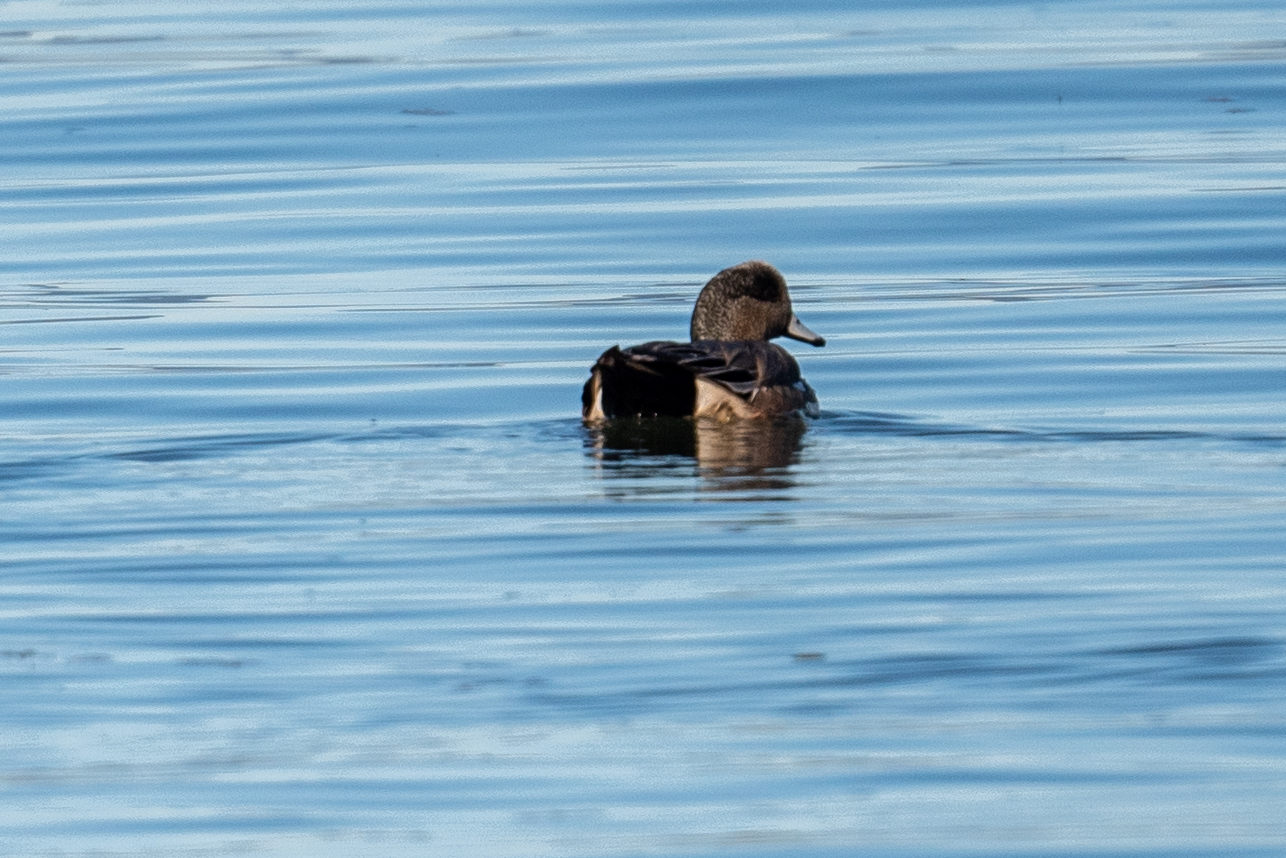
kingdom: Animalia
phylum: Chordata
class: Aves
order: Anseriformes
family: Anatidae
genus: Mareca
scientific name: Mareca americana
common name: American wigeon
